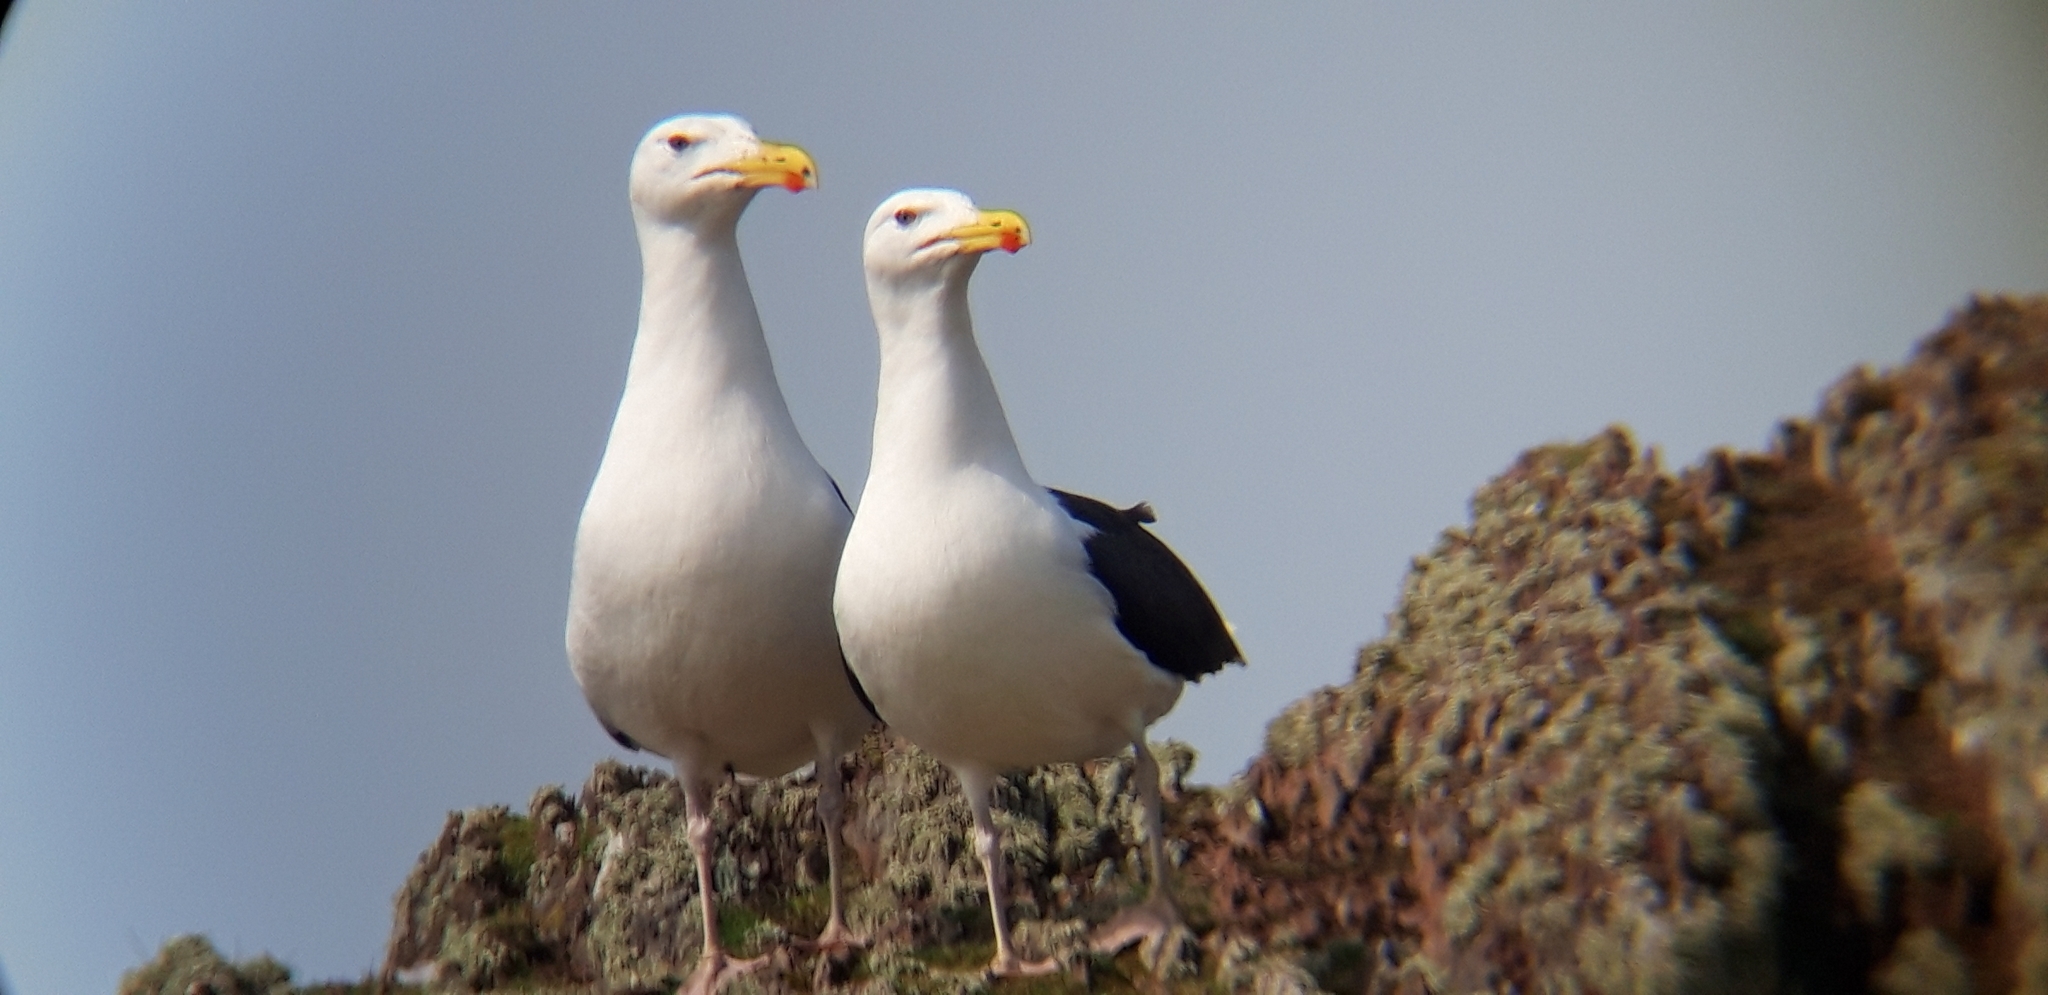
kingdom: Animalia
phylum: Chordata
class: Aves
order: Charadriiformes
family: Laridae
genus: Larus
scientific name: Larus marinus
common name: Great black-backed gull
